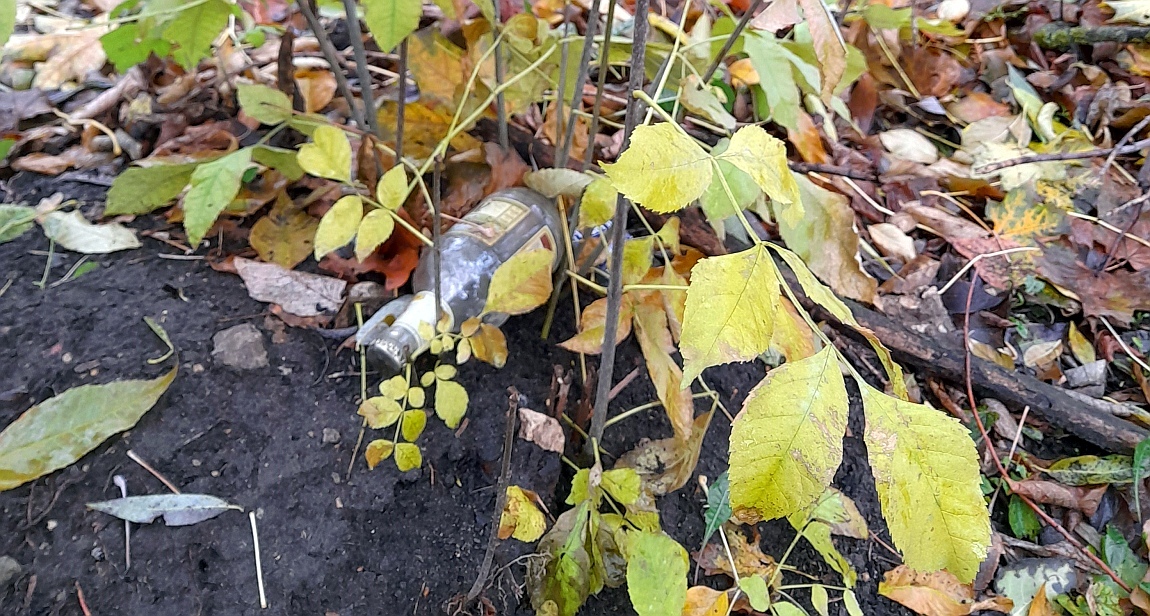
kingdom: Plantae
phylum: Tracheophyta
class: Magnoliopsida
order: Lamiales
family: Oleaceae
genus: Fraxinus
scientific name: Fraxinus pennsylvanica
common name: Green ash
